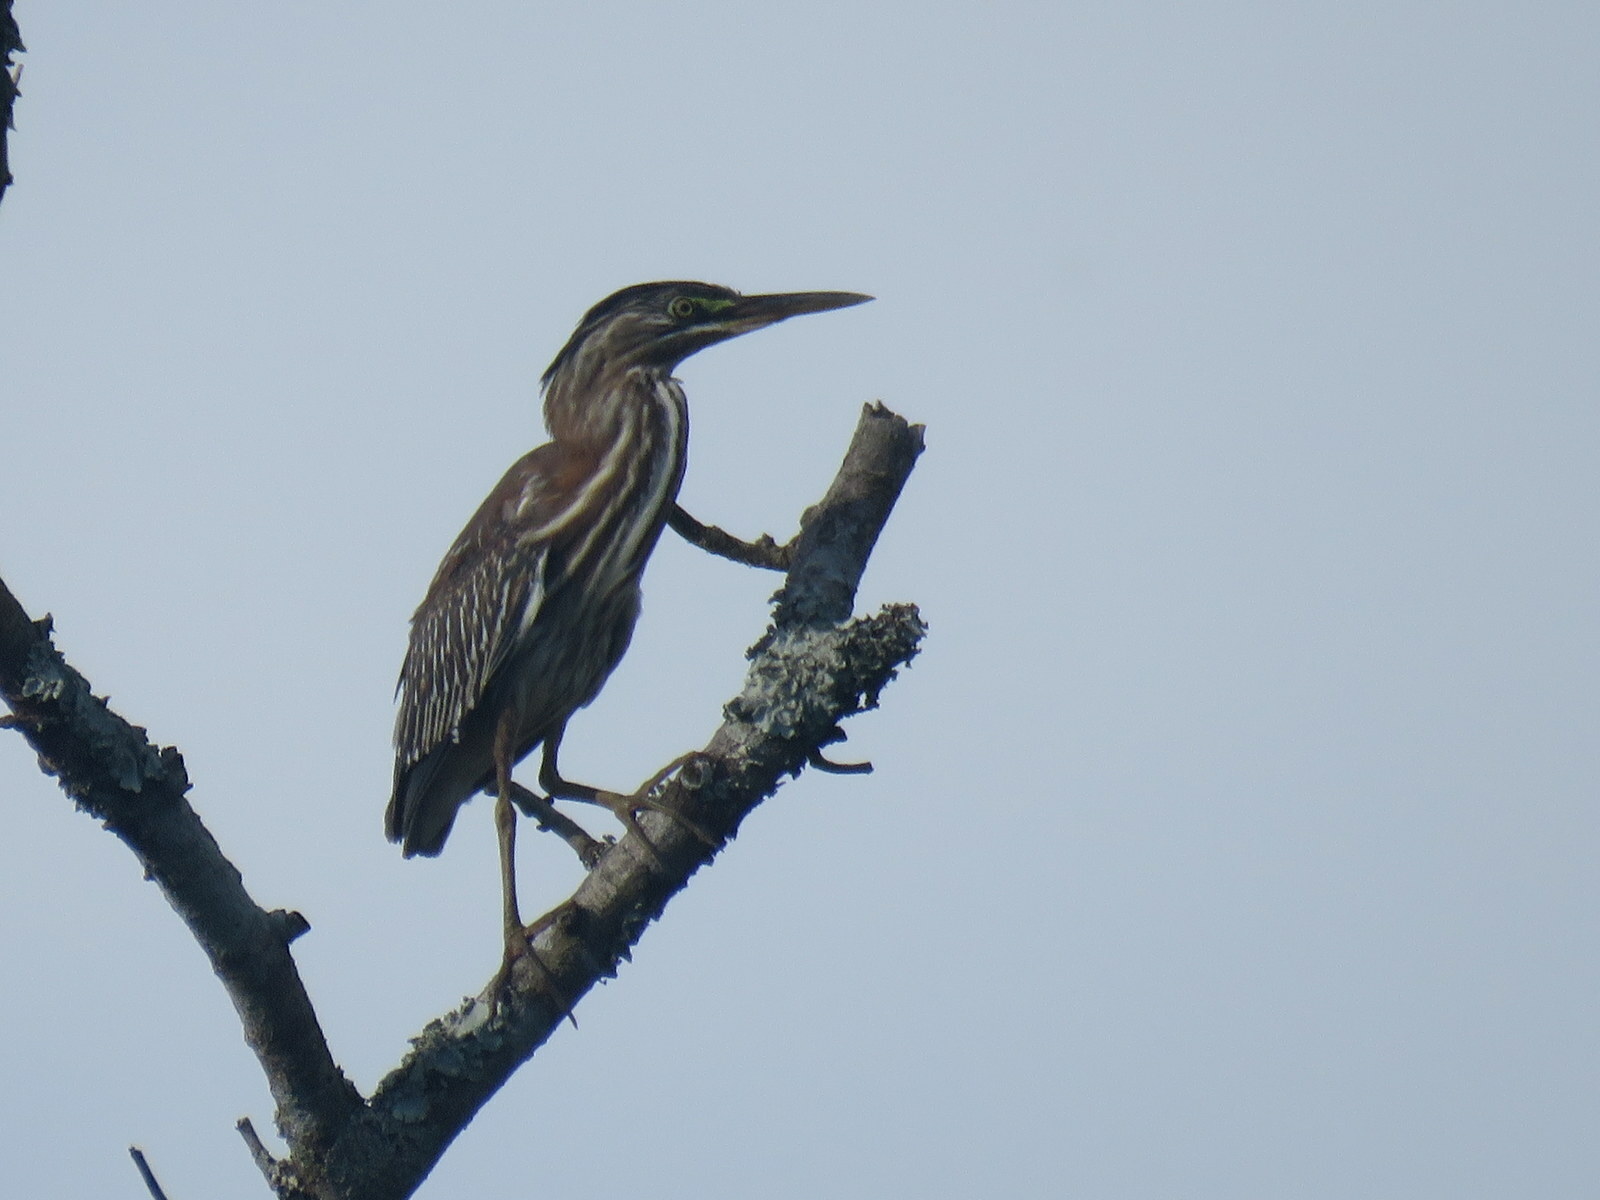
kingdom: Animalia
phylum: Chordata
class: Aves
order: Pelecaniformes
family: Ardeidae
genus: Butorides
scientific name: Butorides striata
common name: Striated heron
